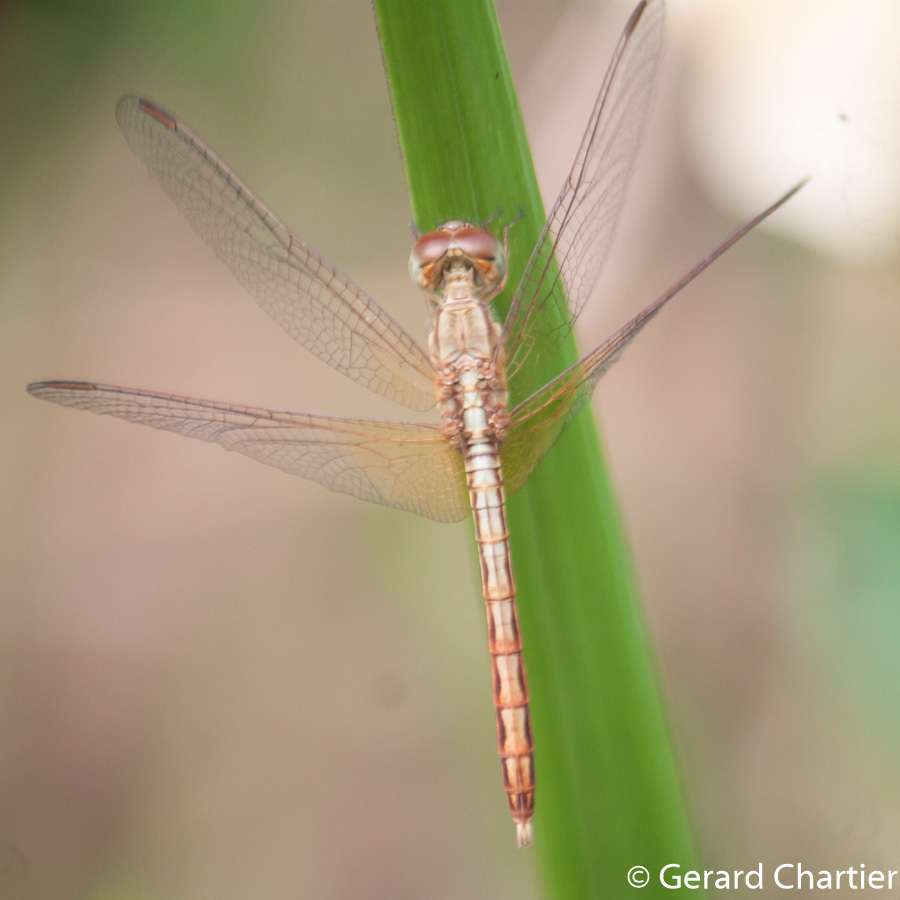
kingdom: Animalia
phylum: Arthropoda
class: Insecta
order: Odonata
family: Libellulidae
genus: Neurothemis
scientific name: Neurothemis intermedia
